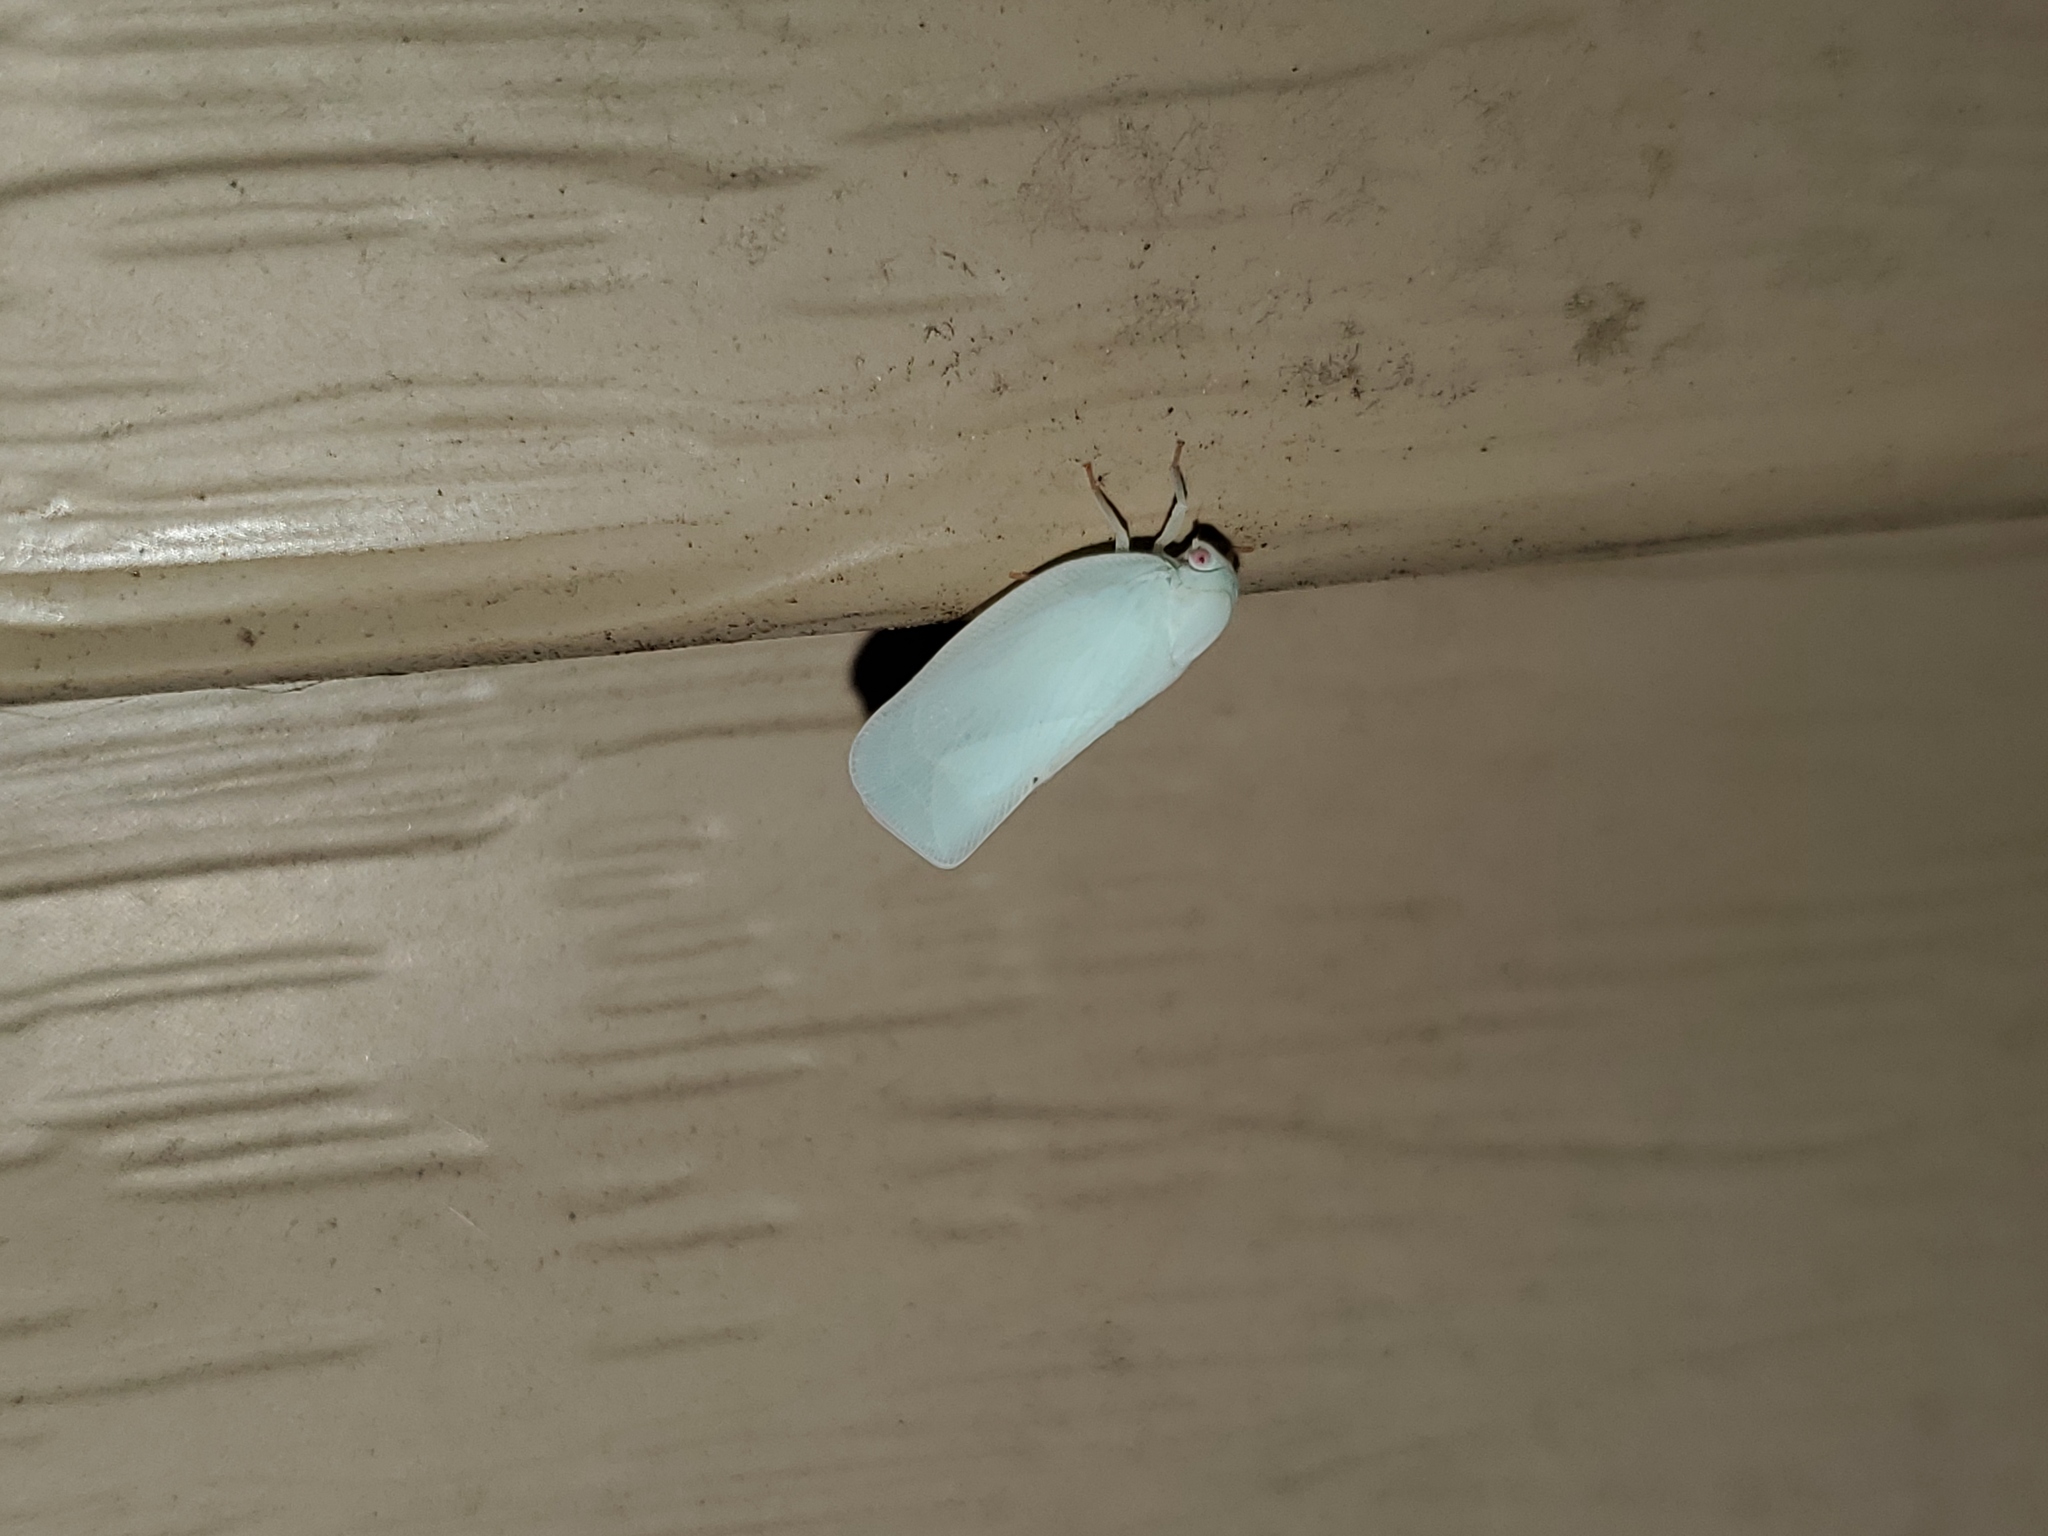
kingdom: Animalia
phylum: Arthropoda
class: Insecta
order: Hemiptera
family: Flatidae
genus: Flatormenis
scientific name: Flatormenis proxima
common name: Northern flatid planthopper
